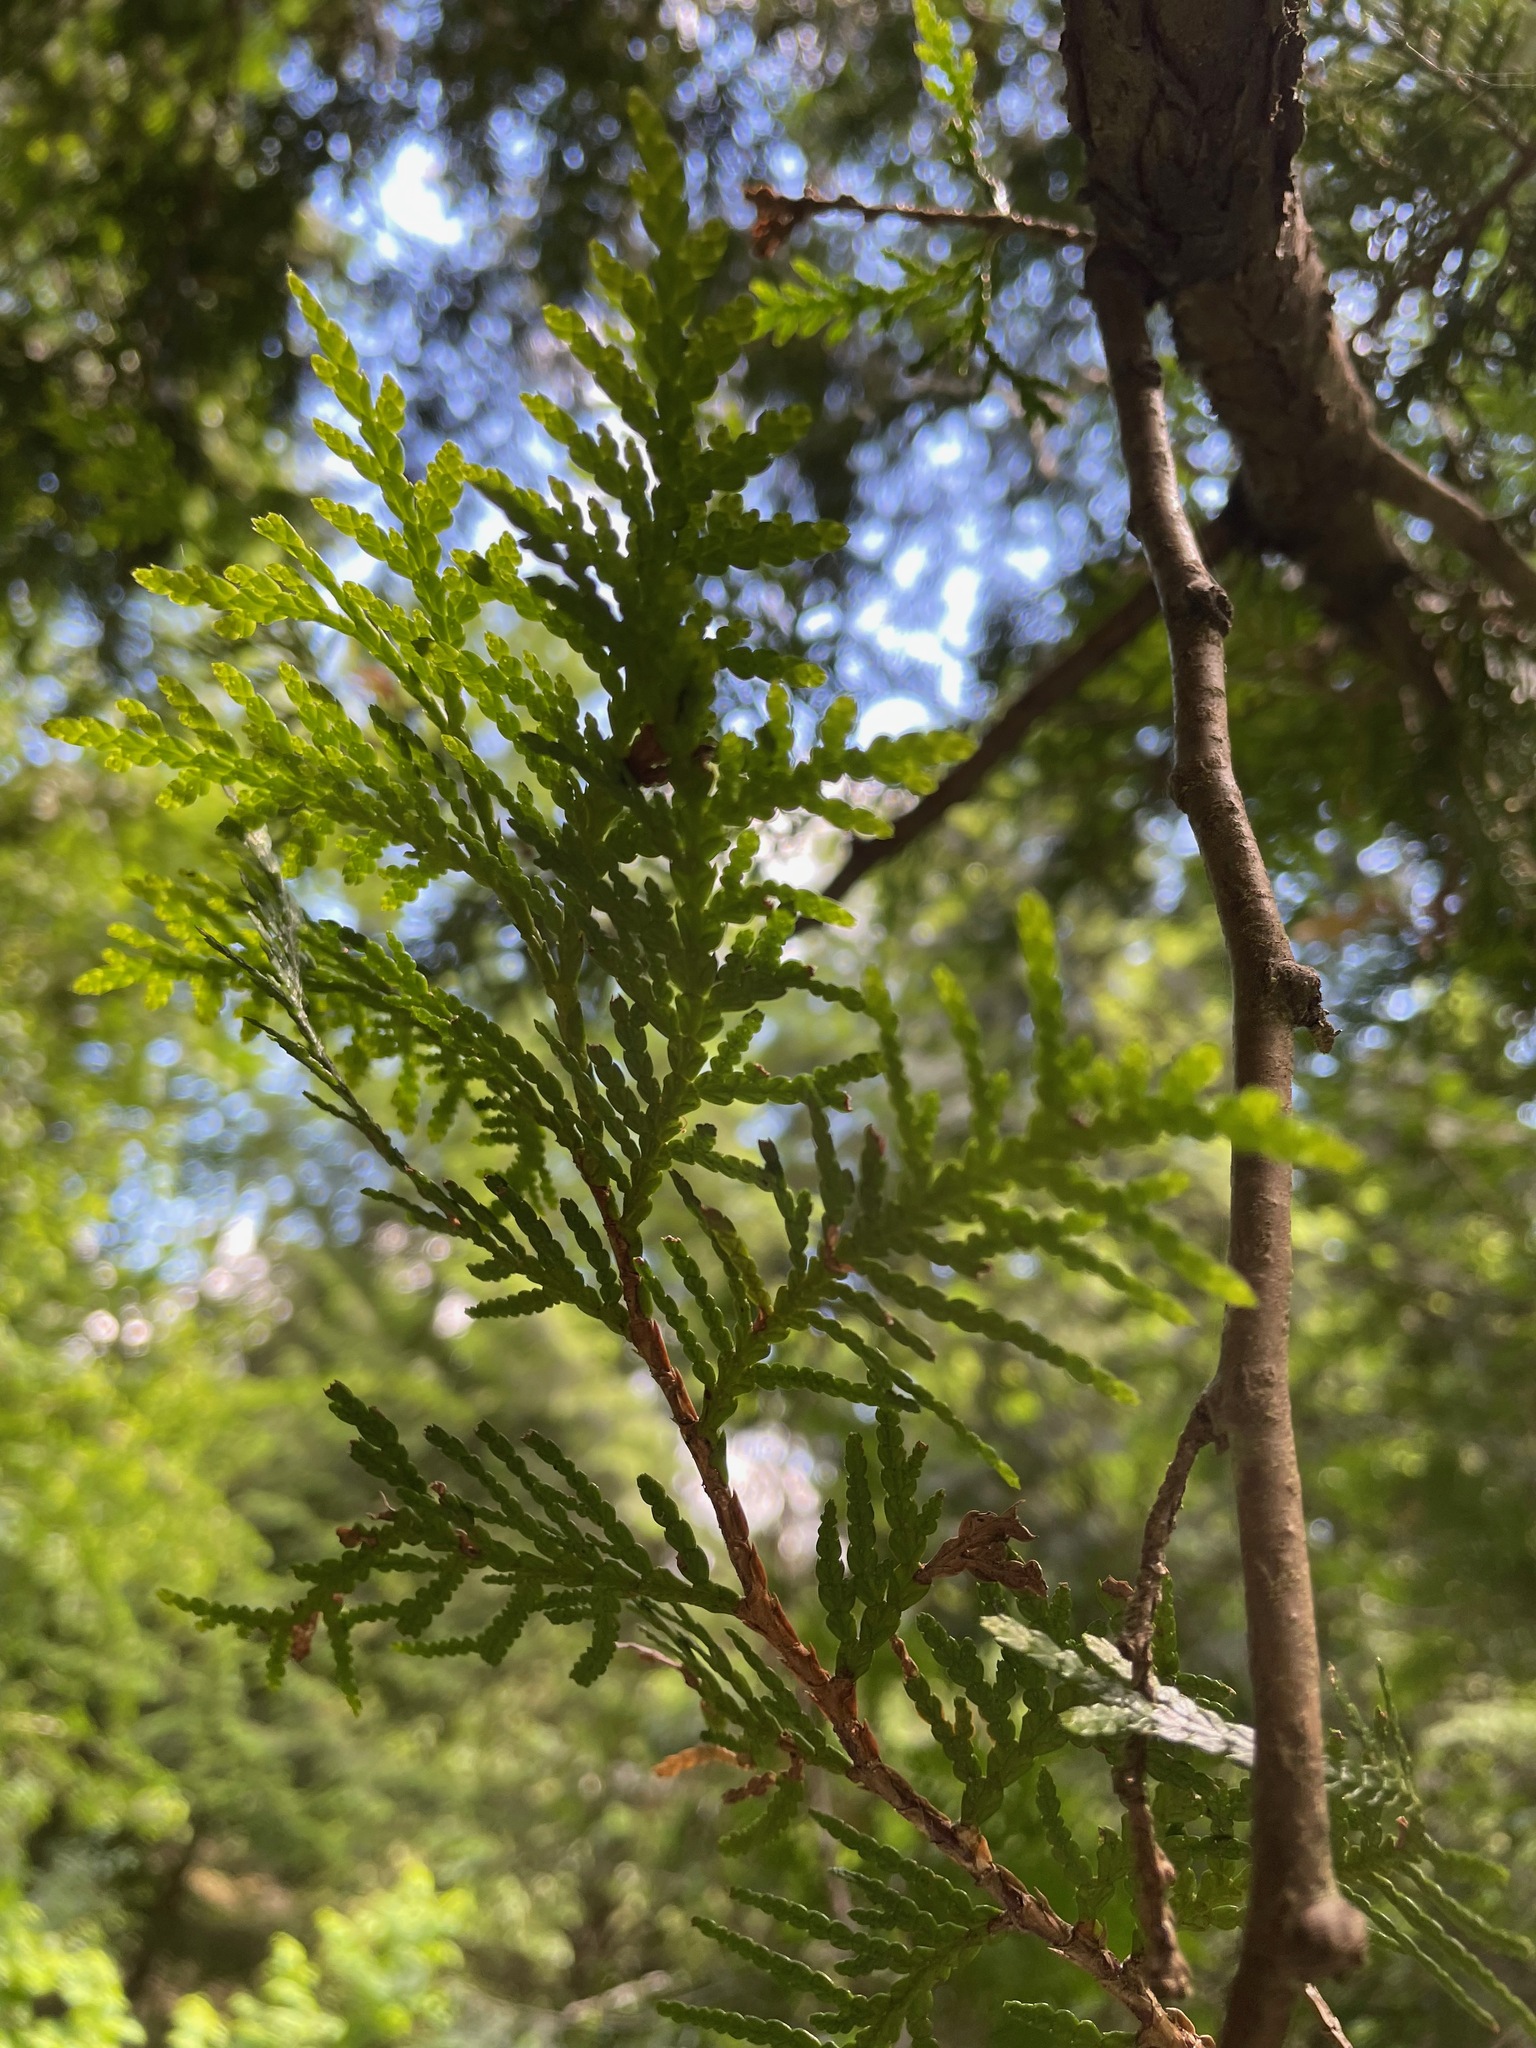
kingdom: Plantae
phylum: Tracheophyta
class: Pinopsida
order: Pinales
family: Cupressaceae
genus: Thuja
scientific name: Thuja occidentalis
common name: Northern white-cedar
